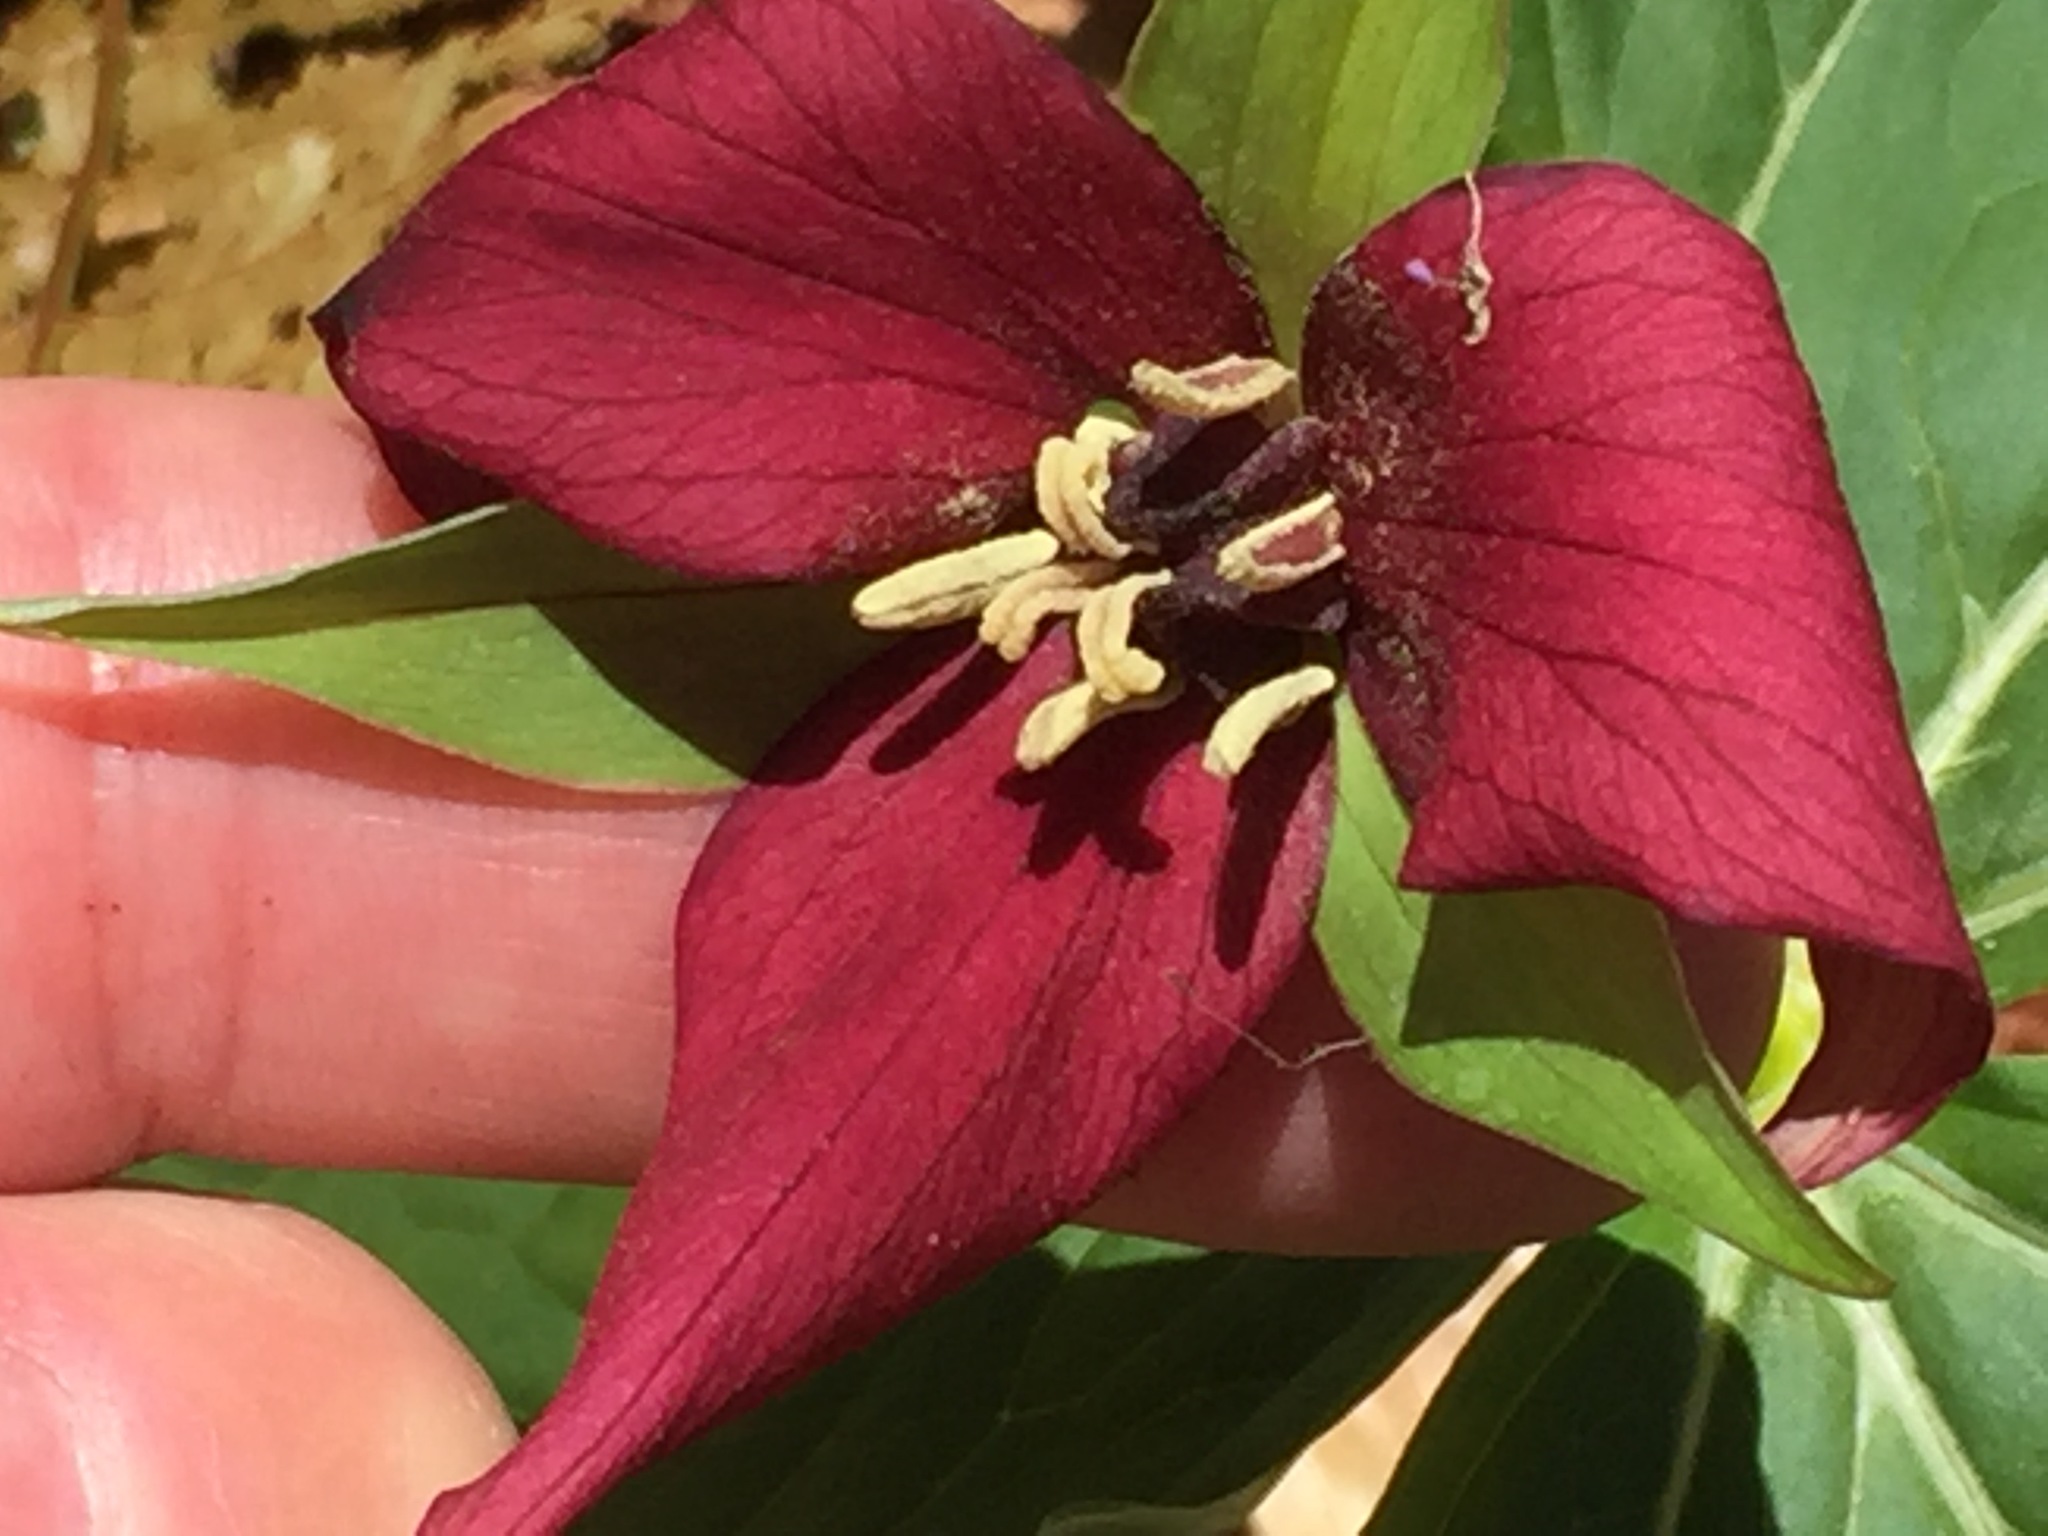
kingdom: Plantae
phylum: Tracheophyta
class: Liliopsida
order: Liliales
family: Melanthiaceae
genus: Trillium
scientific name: Trillium erectum
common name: Purple trillium
